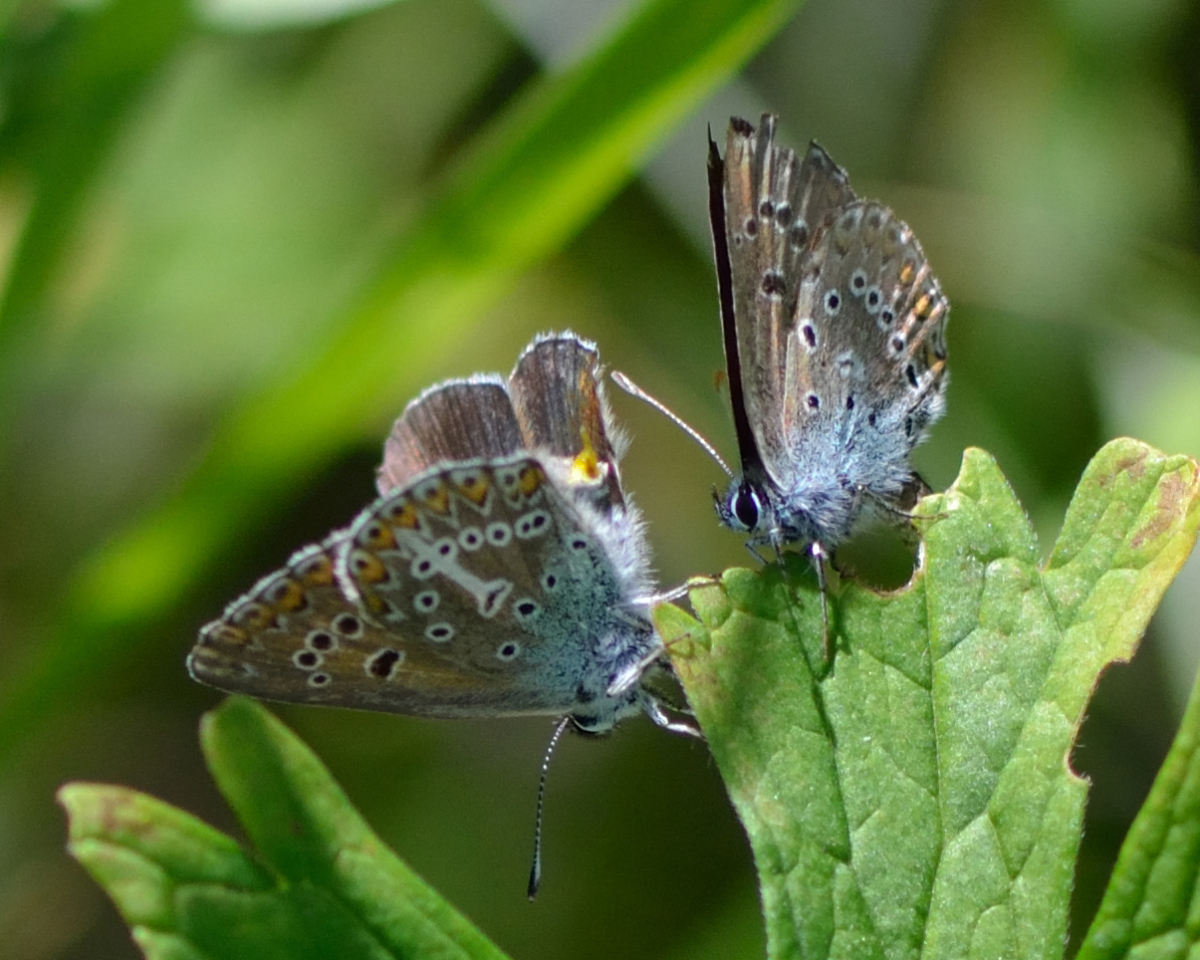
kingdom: Animalia
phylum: Arthropoda
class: Insecta
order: Lepidoptera
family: Lycaenidae
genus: Eumedonia
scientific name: Eumedonia eumedon
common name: Geranium argus
